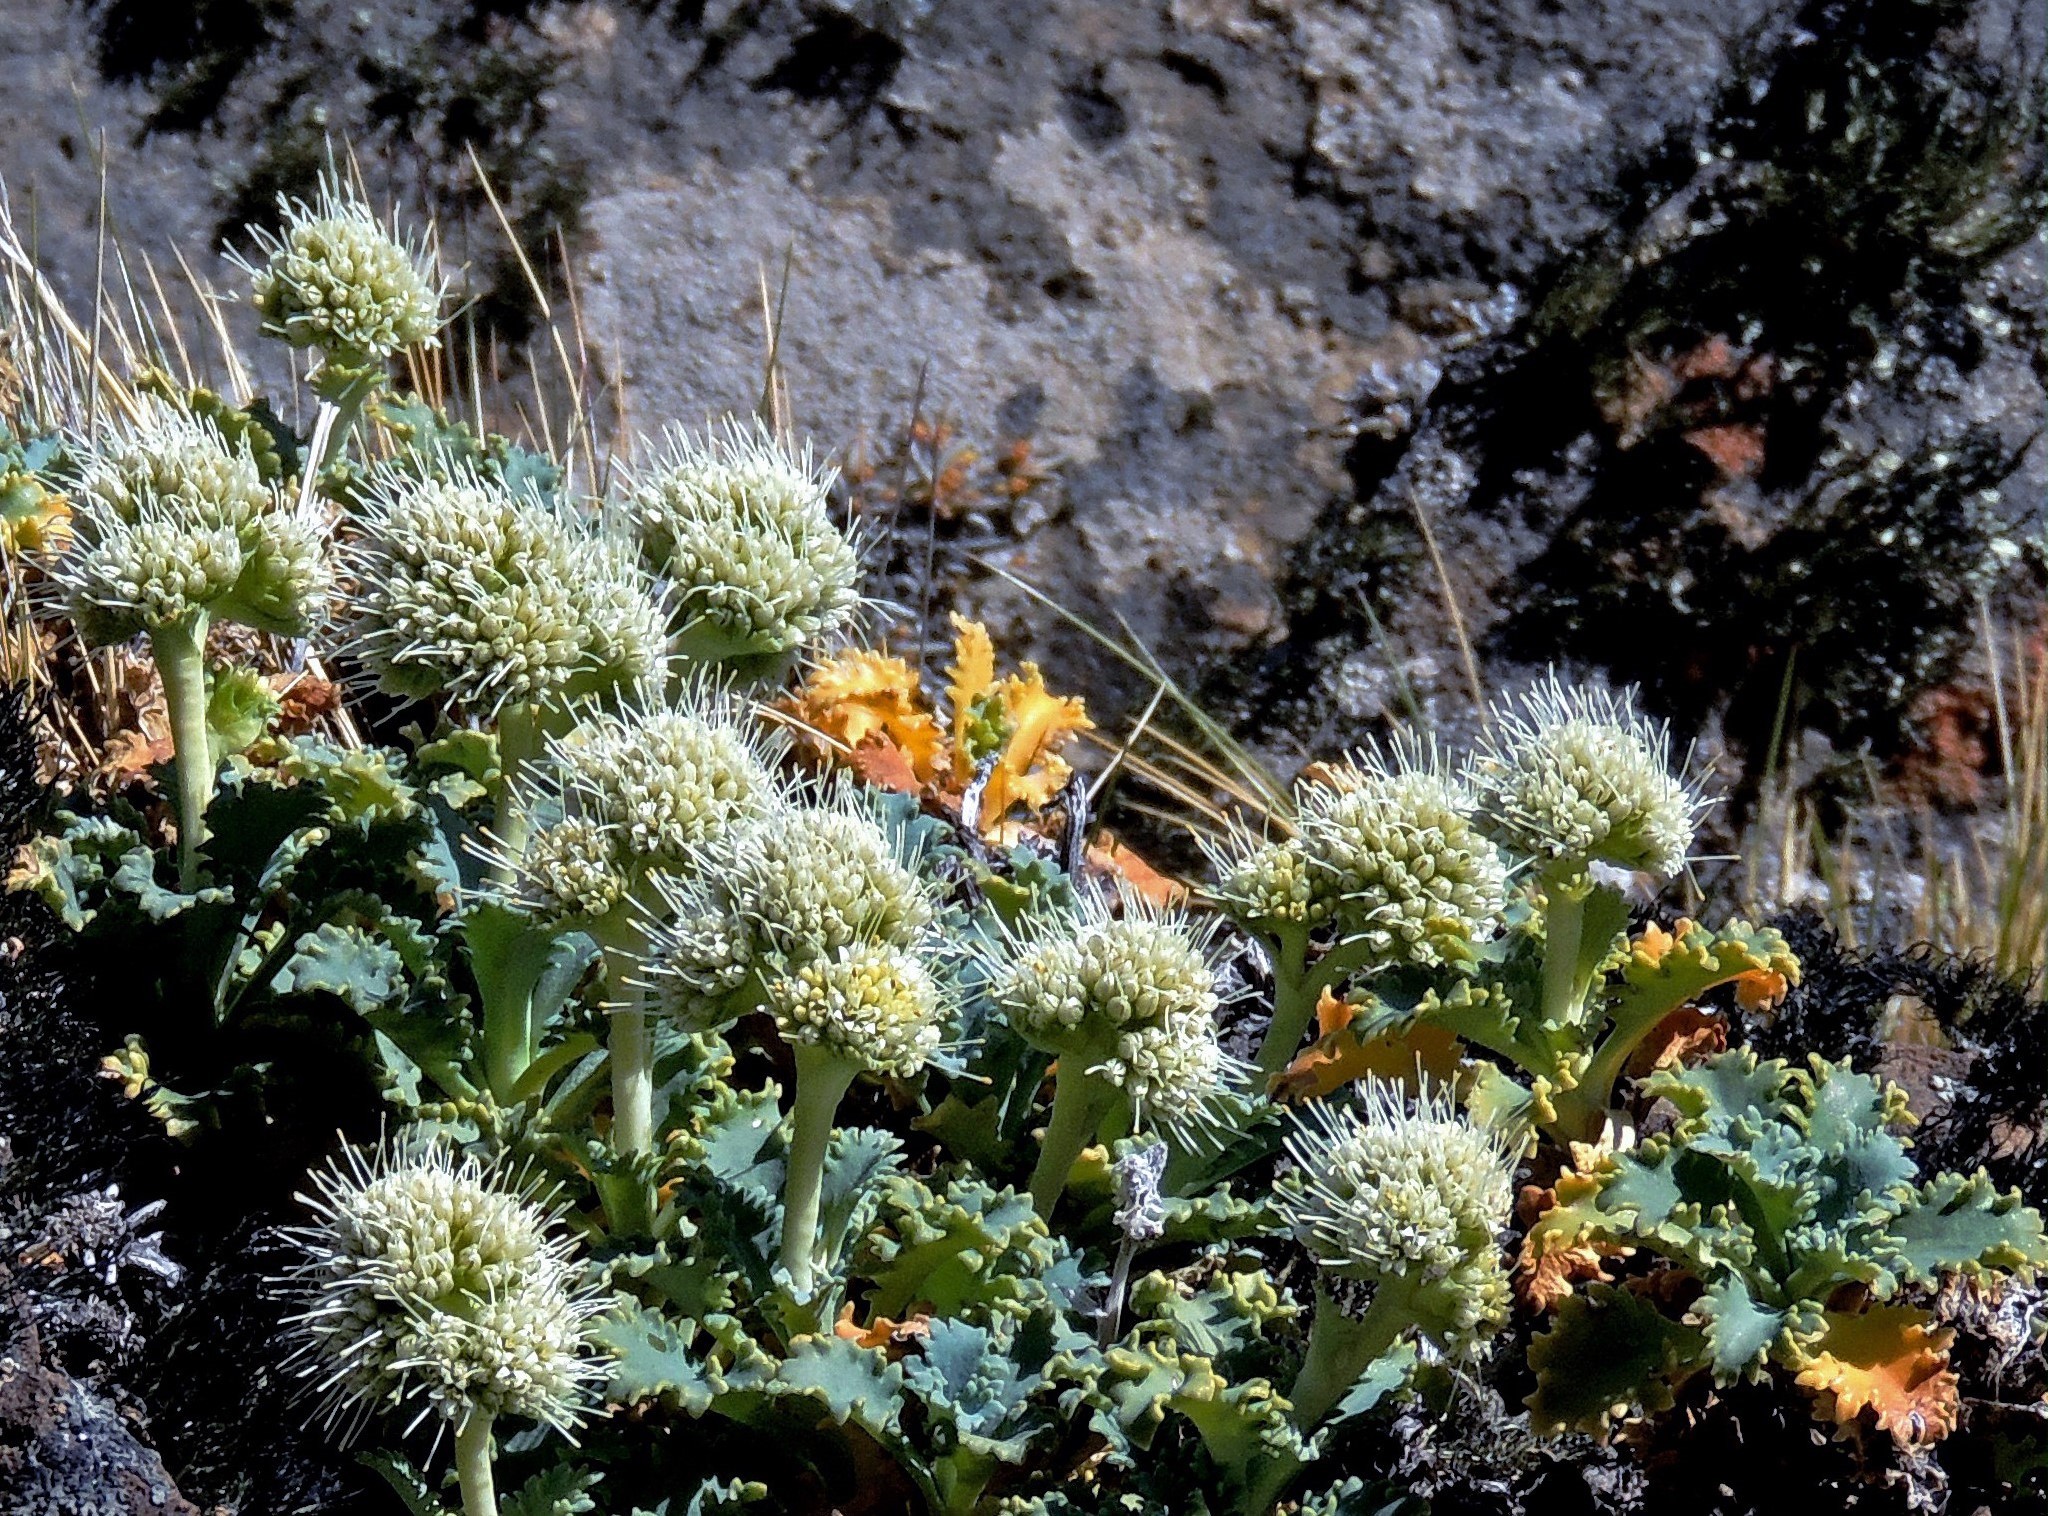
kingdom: Plantae
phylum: Tracheophyta
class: Magnoliopsida
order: Asterales
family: Calyceraceae
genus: Moschopsis
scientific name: Moschopsis ameghinoi
